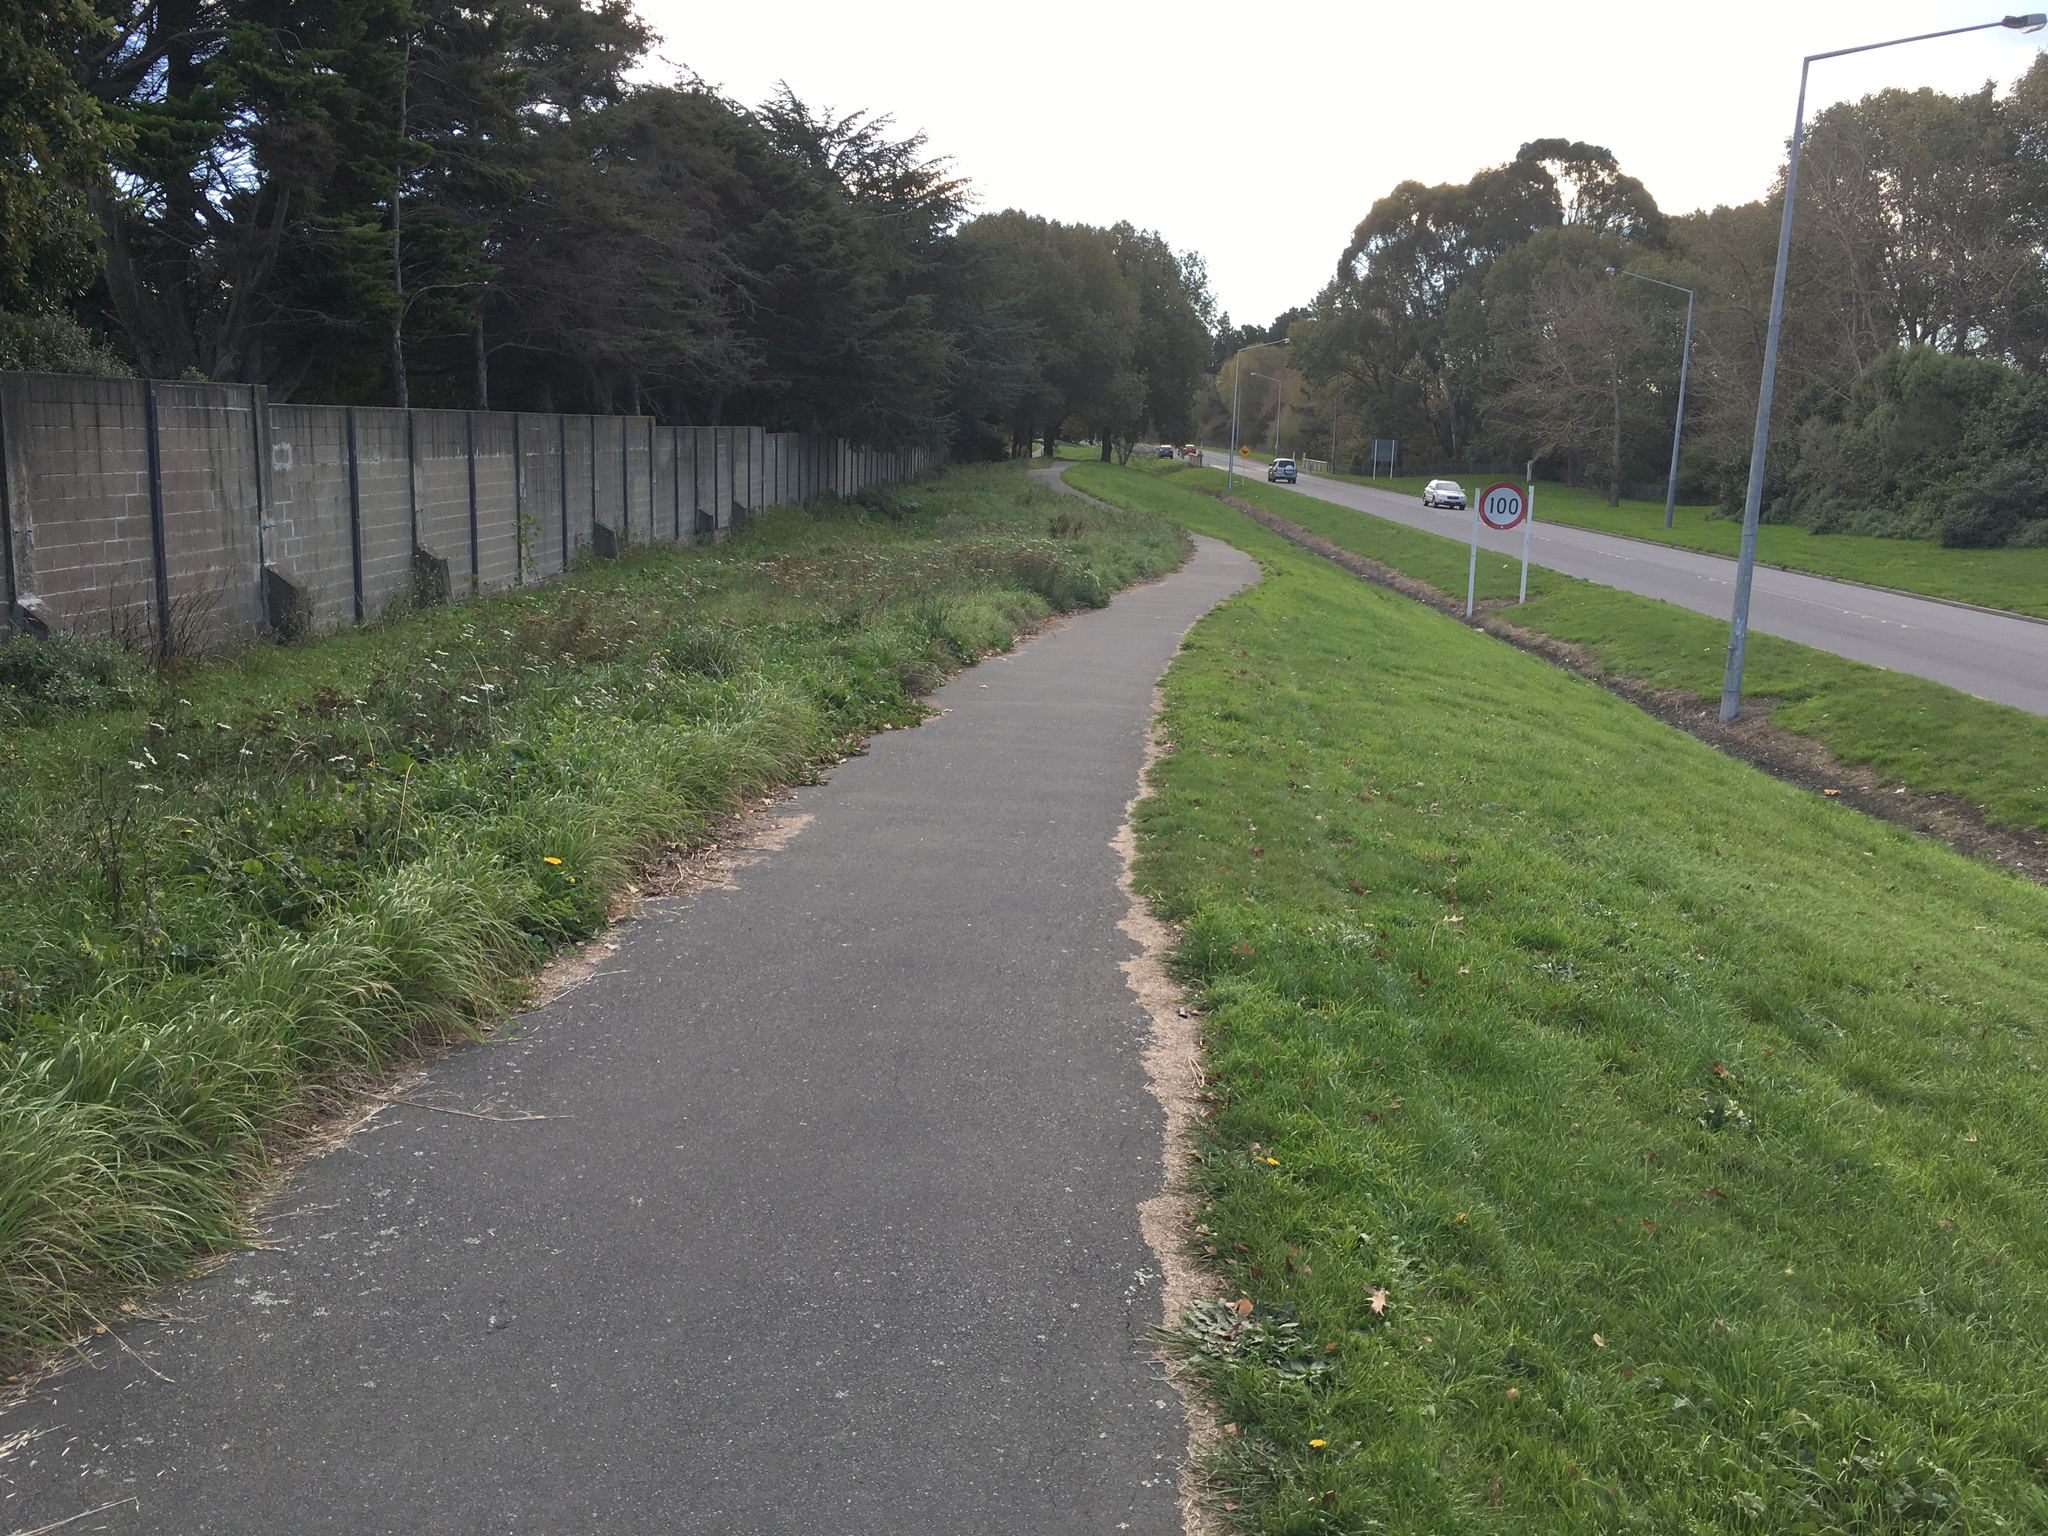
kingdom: Plantae
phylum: Tracheophyta
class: Magnoliopsida
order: Asterales
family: Asteraceae
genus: Achillea
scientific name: Achillea millefolium
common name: Yarrow
